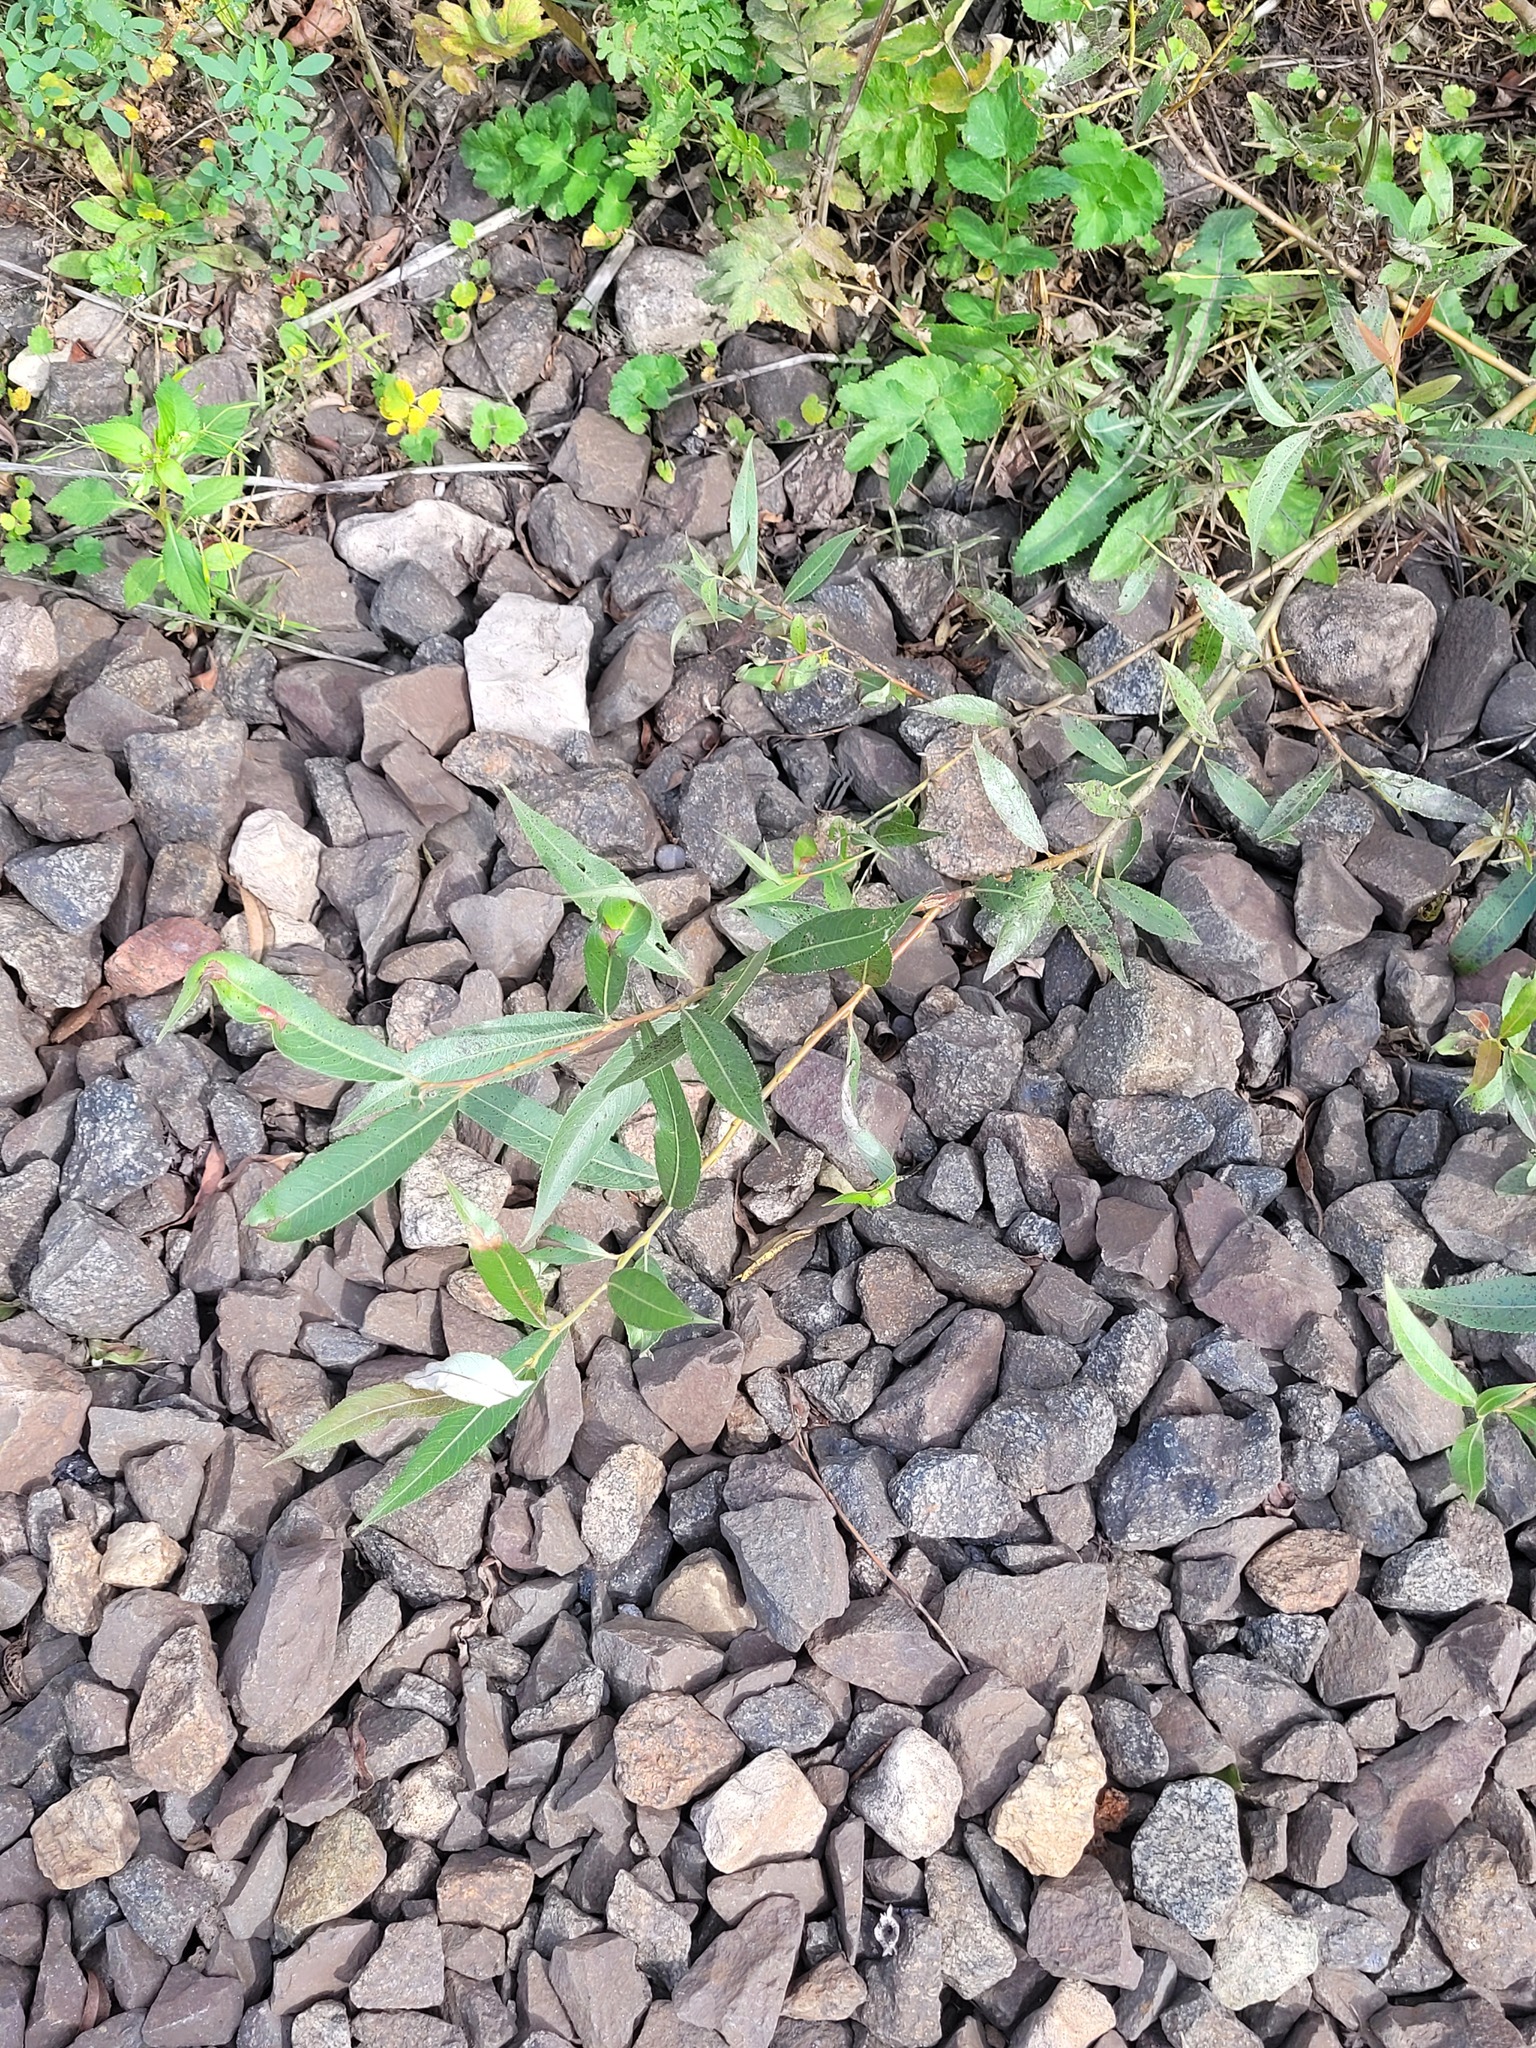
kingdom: Plantae
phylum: Tracheophyta
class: Magnoliopsida
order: Malpighiales
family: Salicaceae
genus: Salix
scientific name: Salix fragilis
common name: Crack willow
